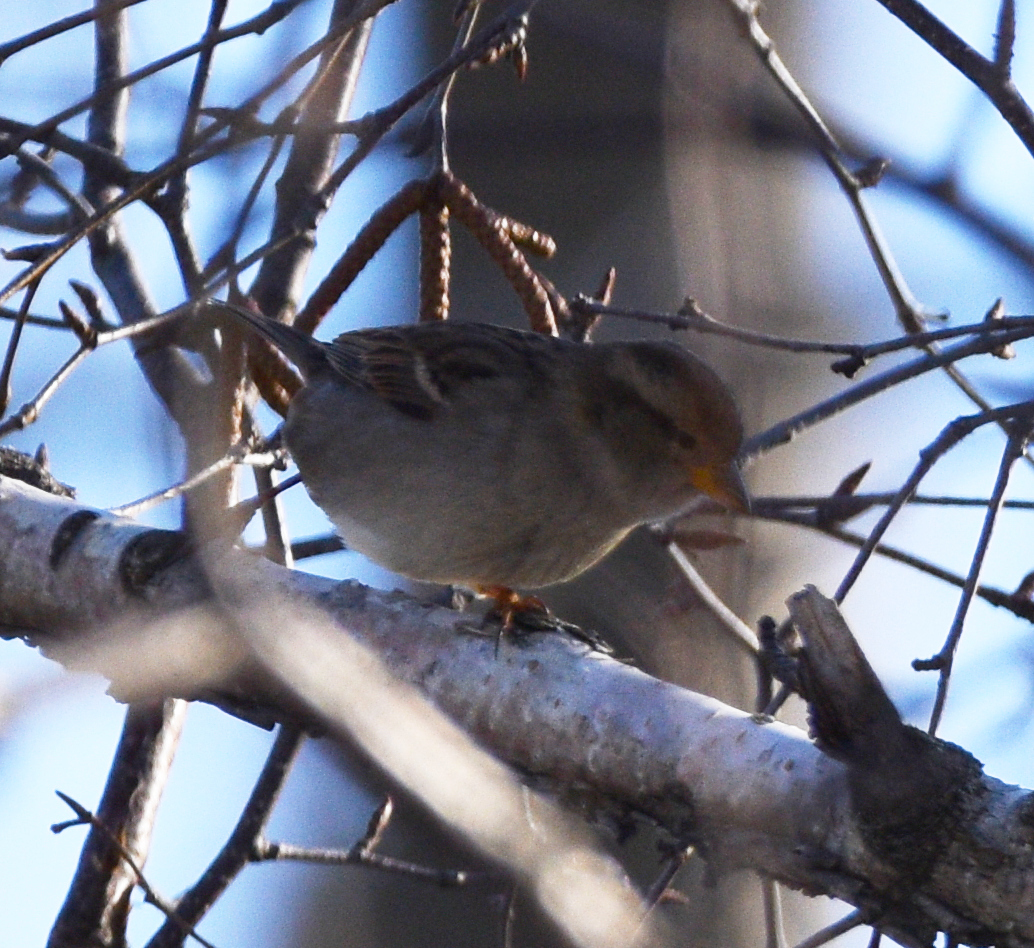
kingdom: Animalia
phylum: Chordata
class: Aves
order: Passeriformes
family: Passeridae
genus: Passer
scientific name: Passer domesticus
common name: House sparrow
